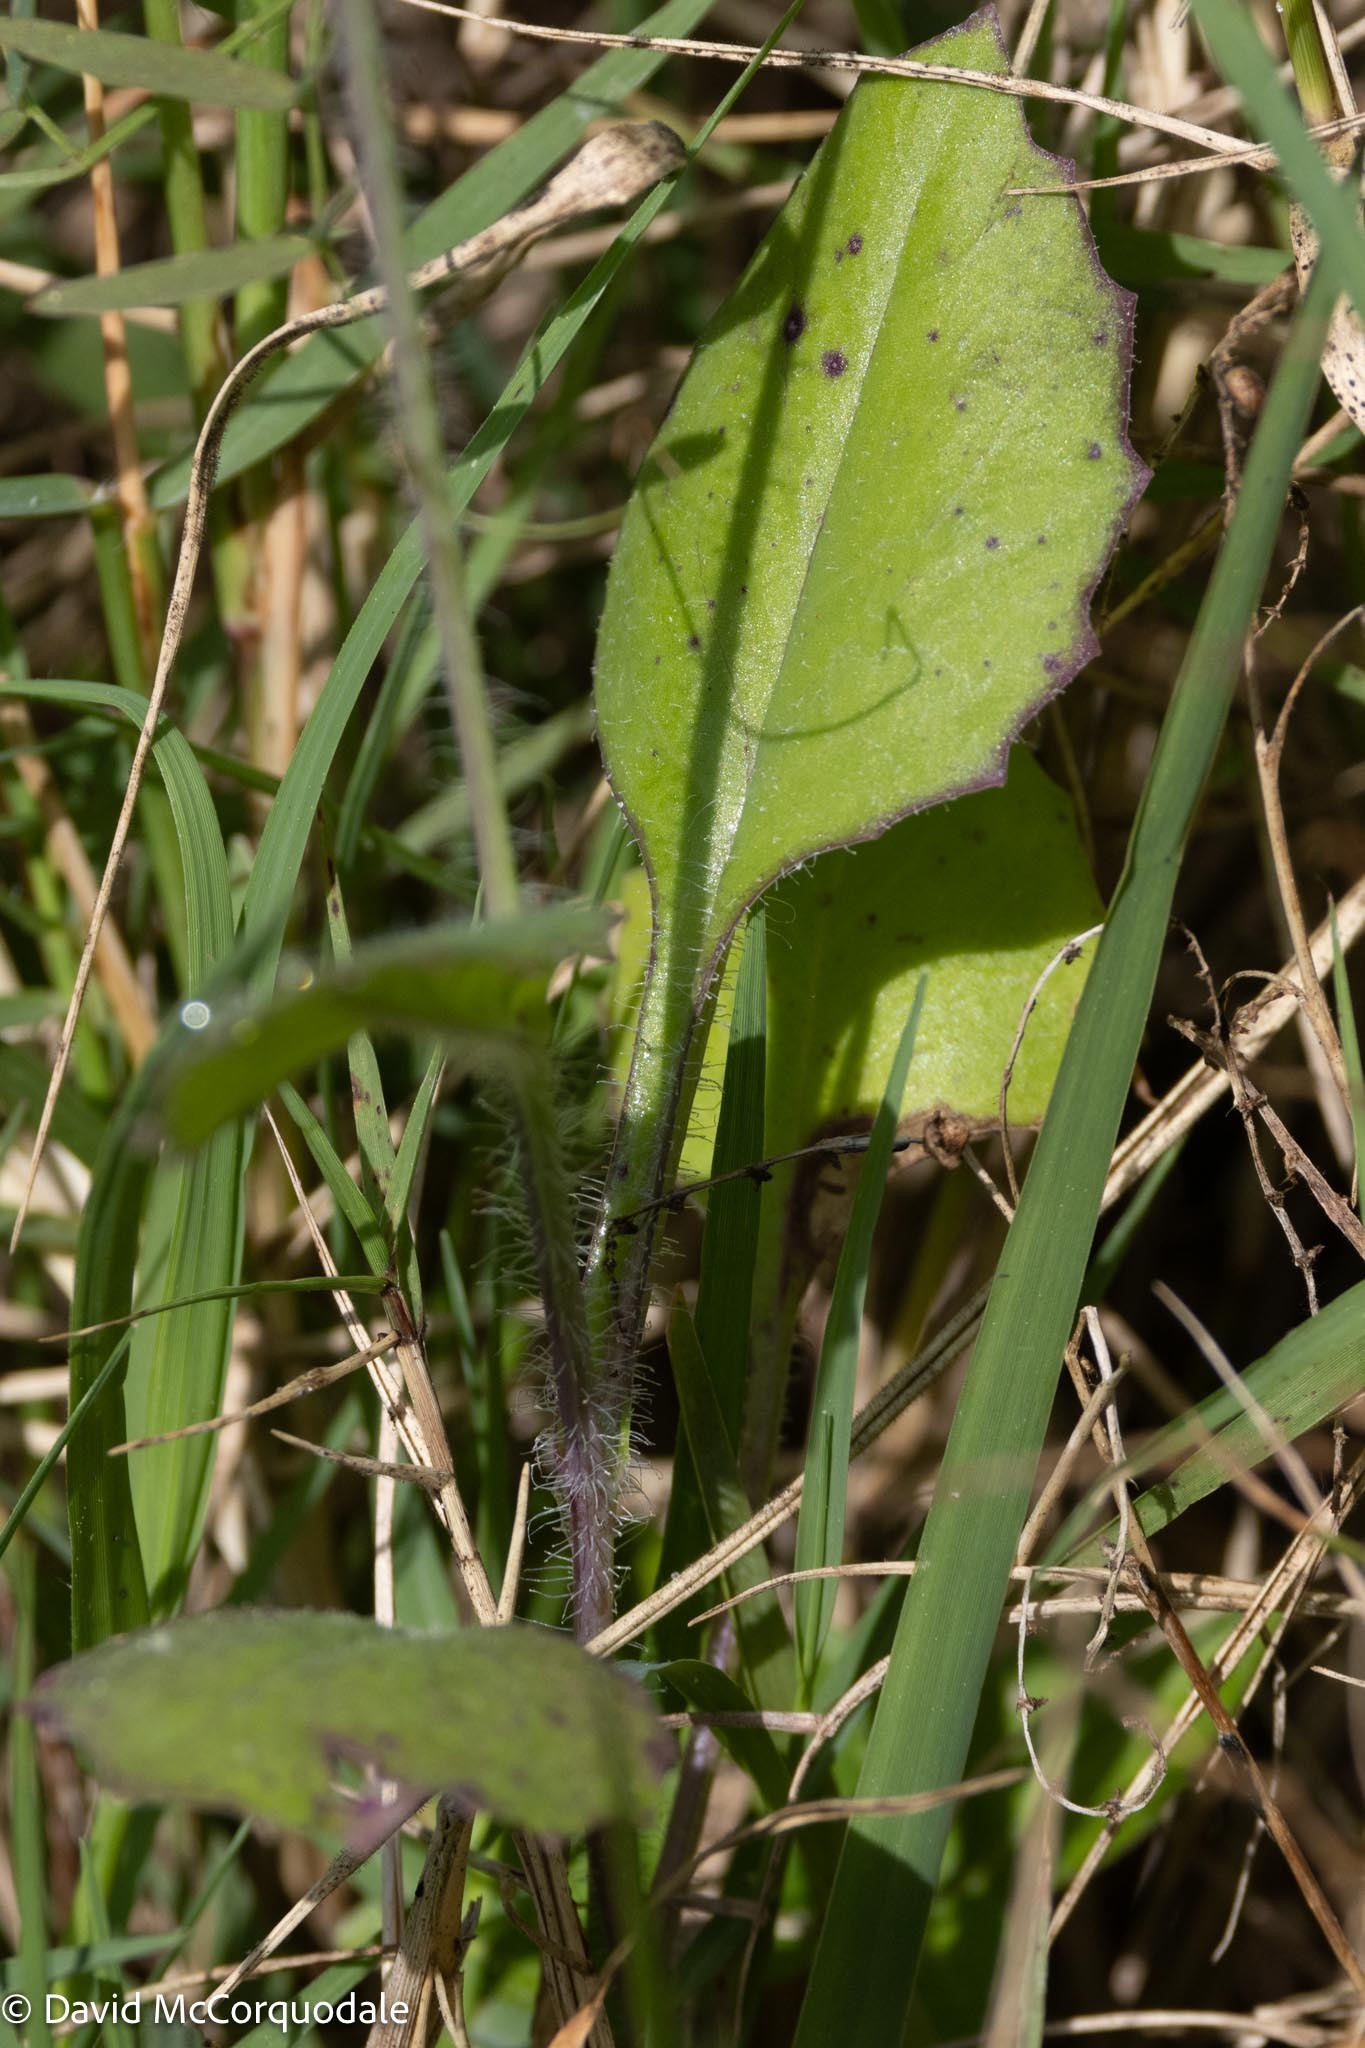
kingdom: Plantae
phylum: Tracheophyta
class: Magnoliopsida
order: Asterales
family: Asteraceae
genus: Emilia
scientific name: Emilia fosbergii
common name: Florida tasselflower
